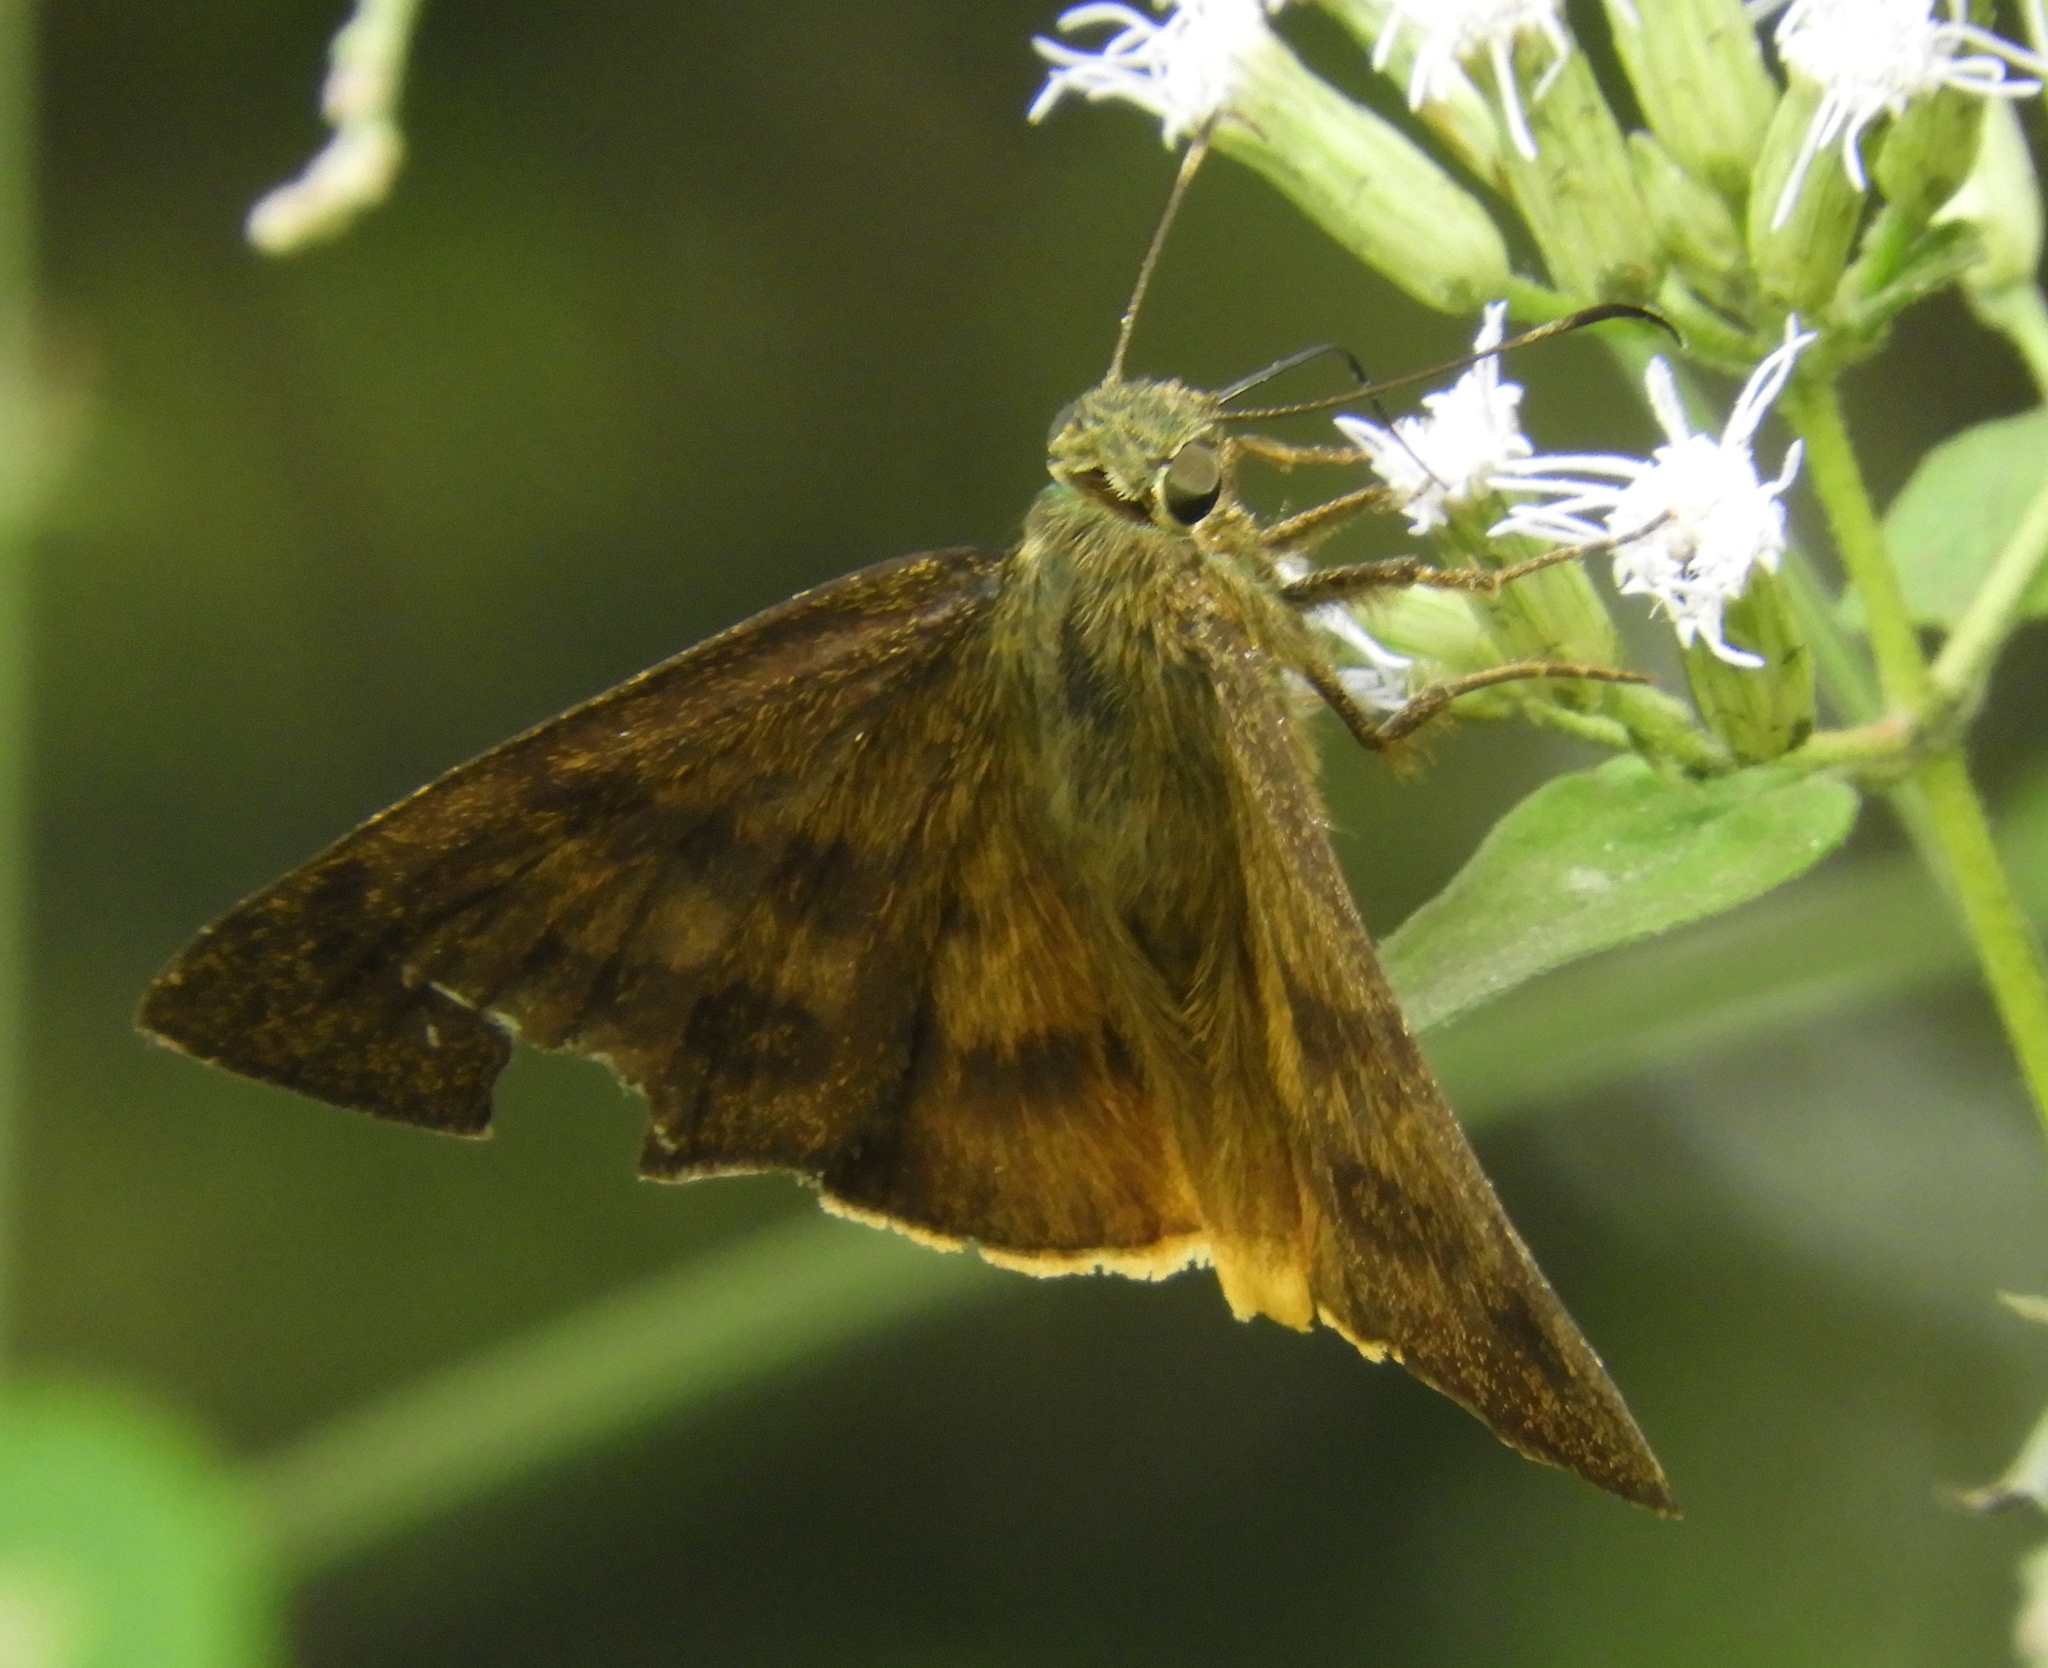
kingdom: Animalia
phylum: Arthropoda
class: Insecta
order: Lepidoptera
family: Hesperiidae
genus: Astraptes
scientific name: Astraptes anaphus
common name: Yellow-tipped flasher
